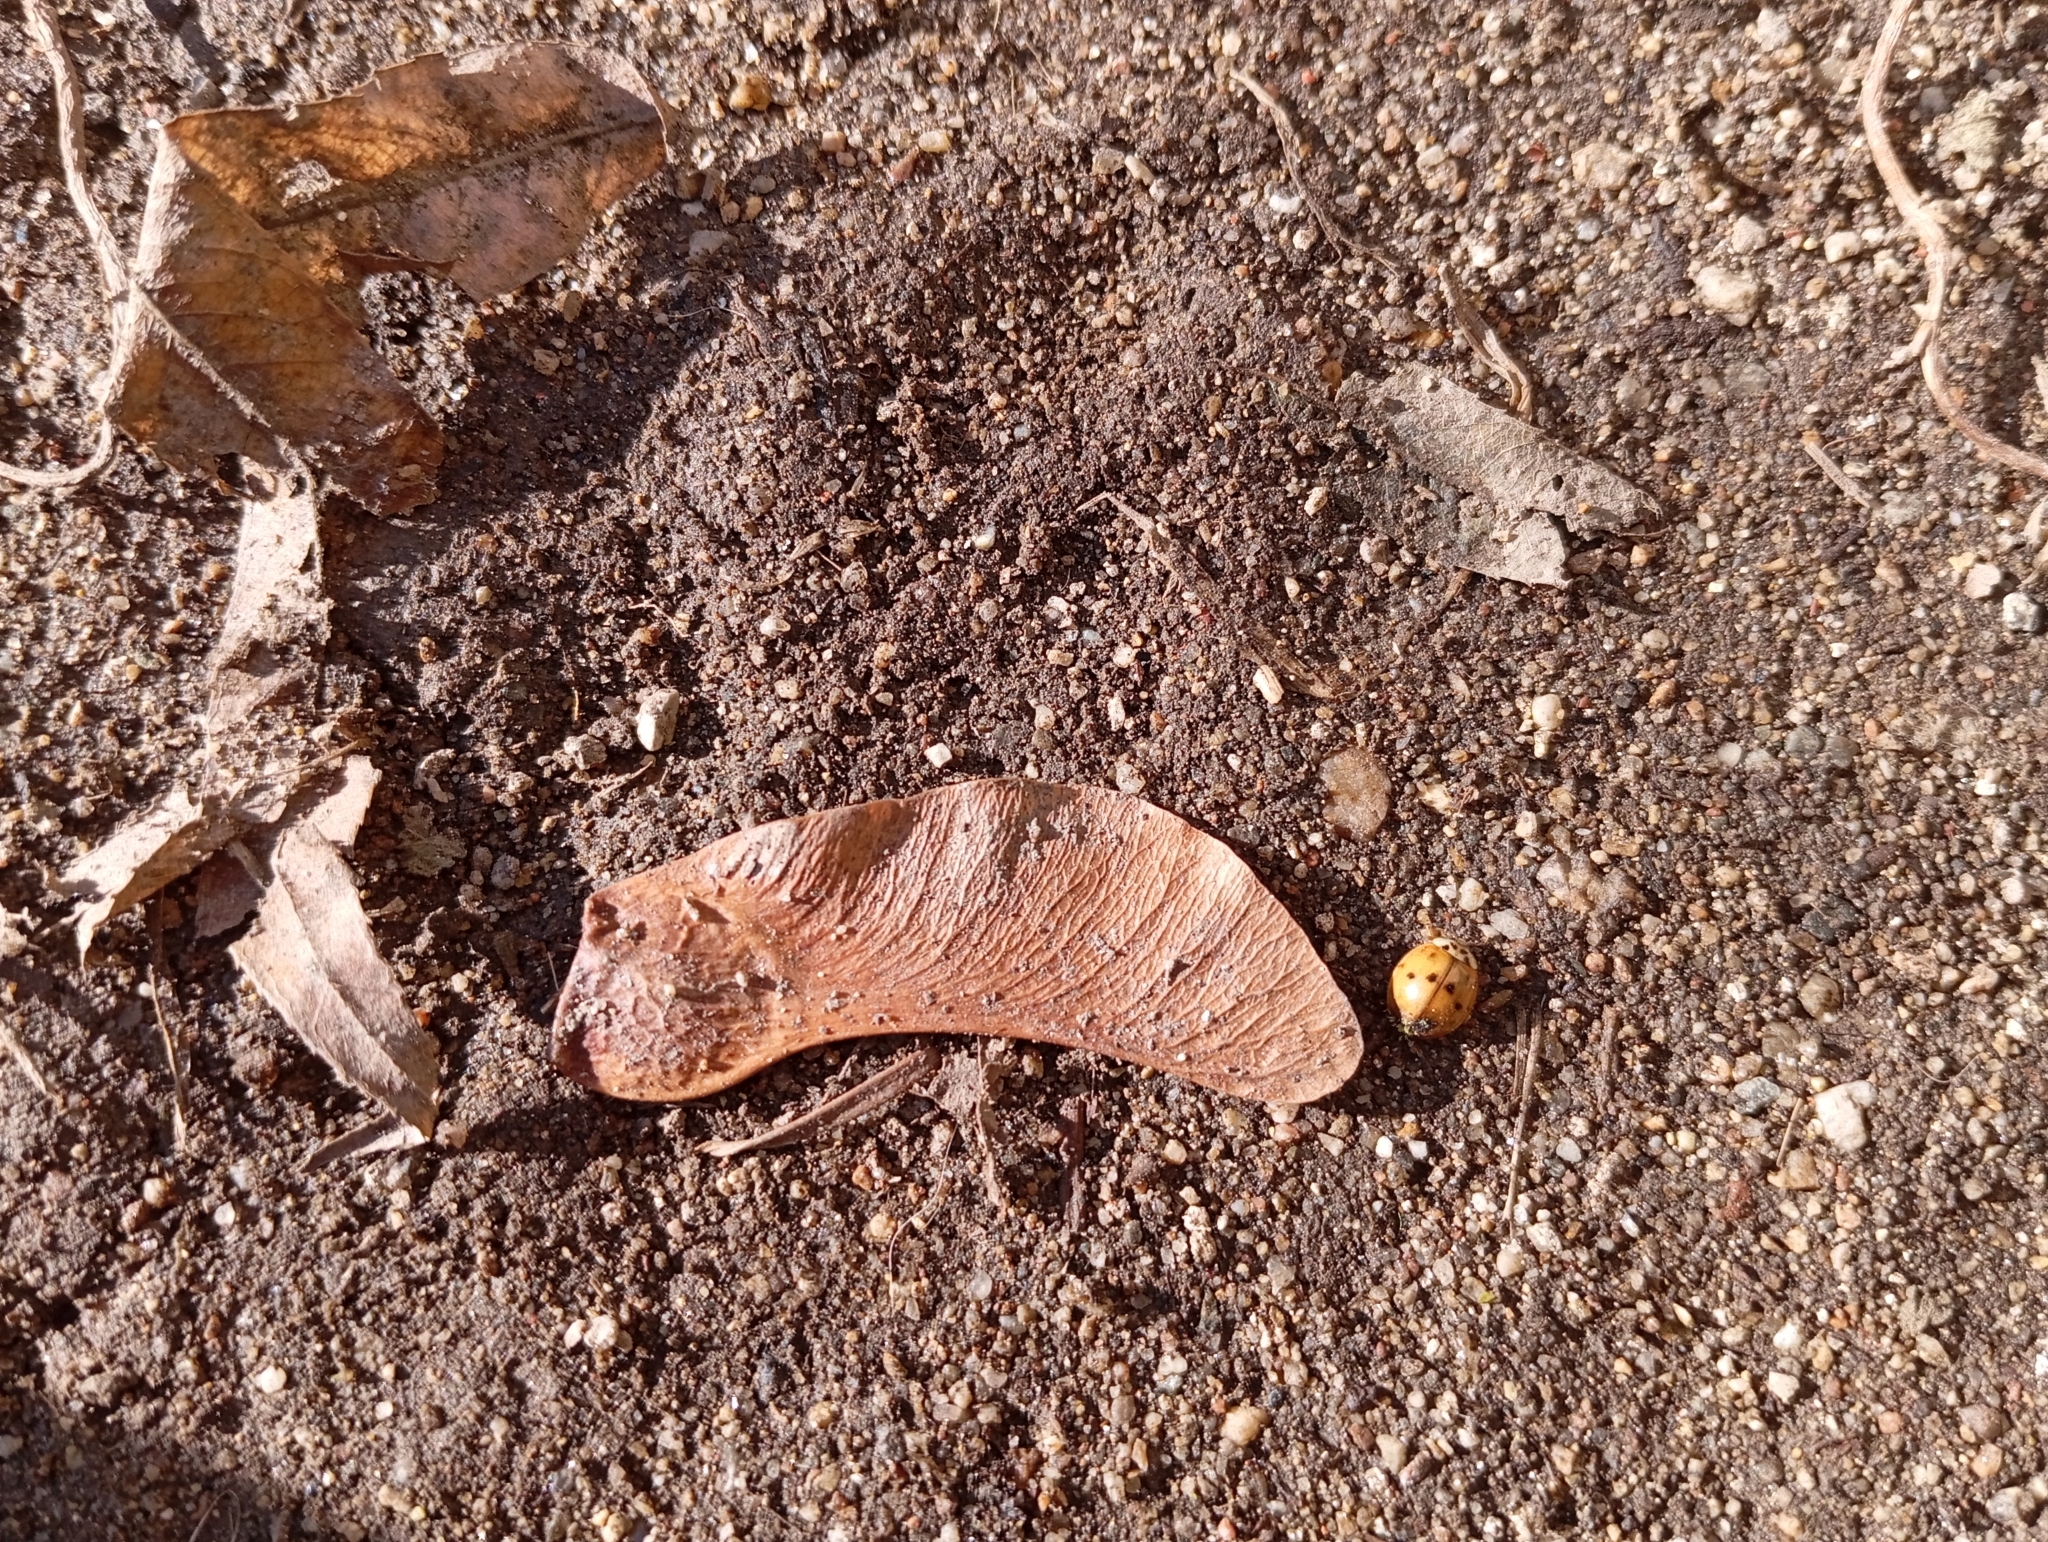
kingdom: Animalia
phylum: Arthropoda
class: Insecta
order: Coleoptera
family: Coccinellidae
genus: Harmonia
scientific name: Harmonia axyridis
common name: Harlequin ladybird
